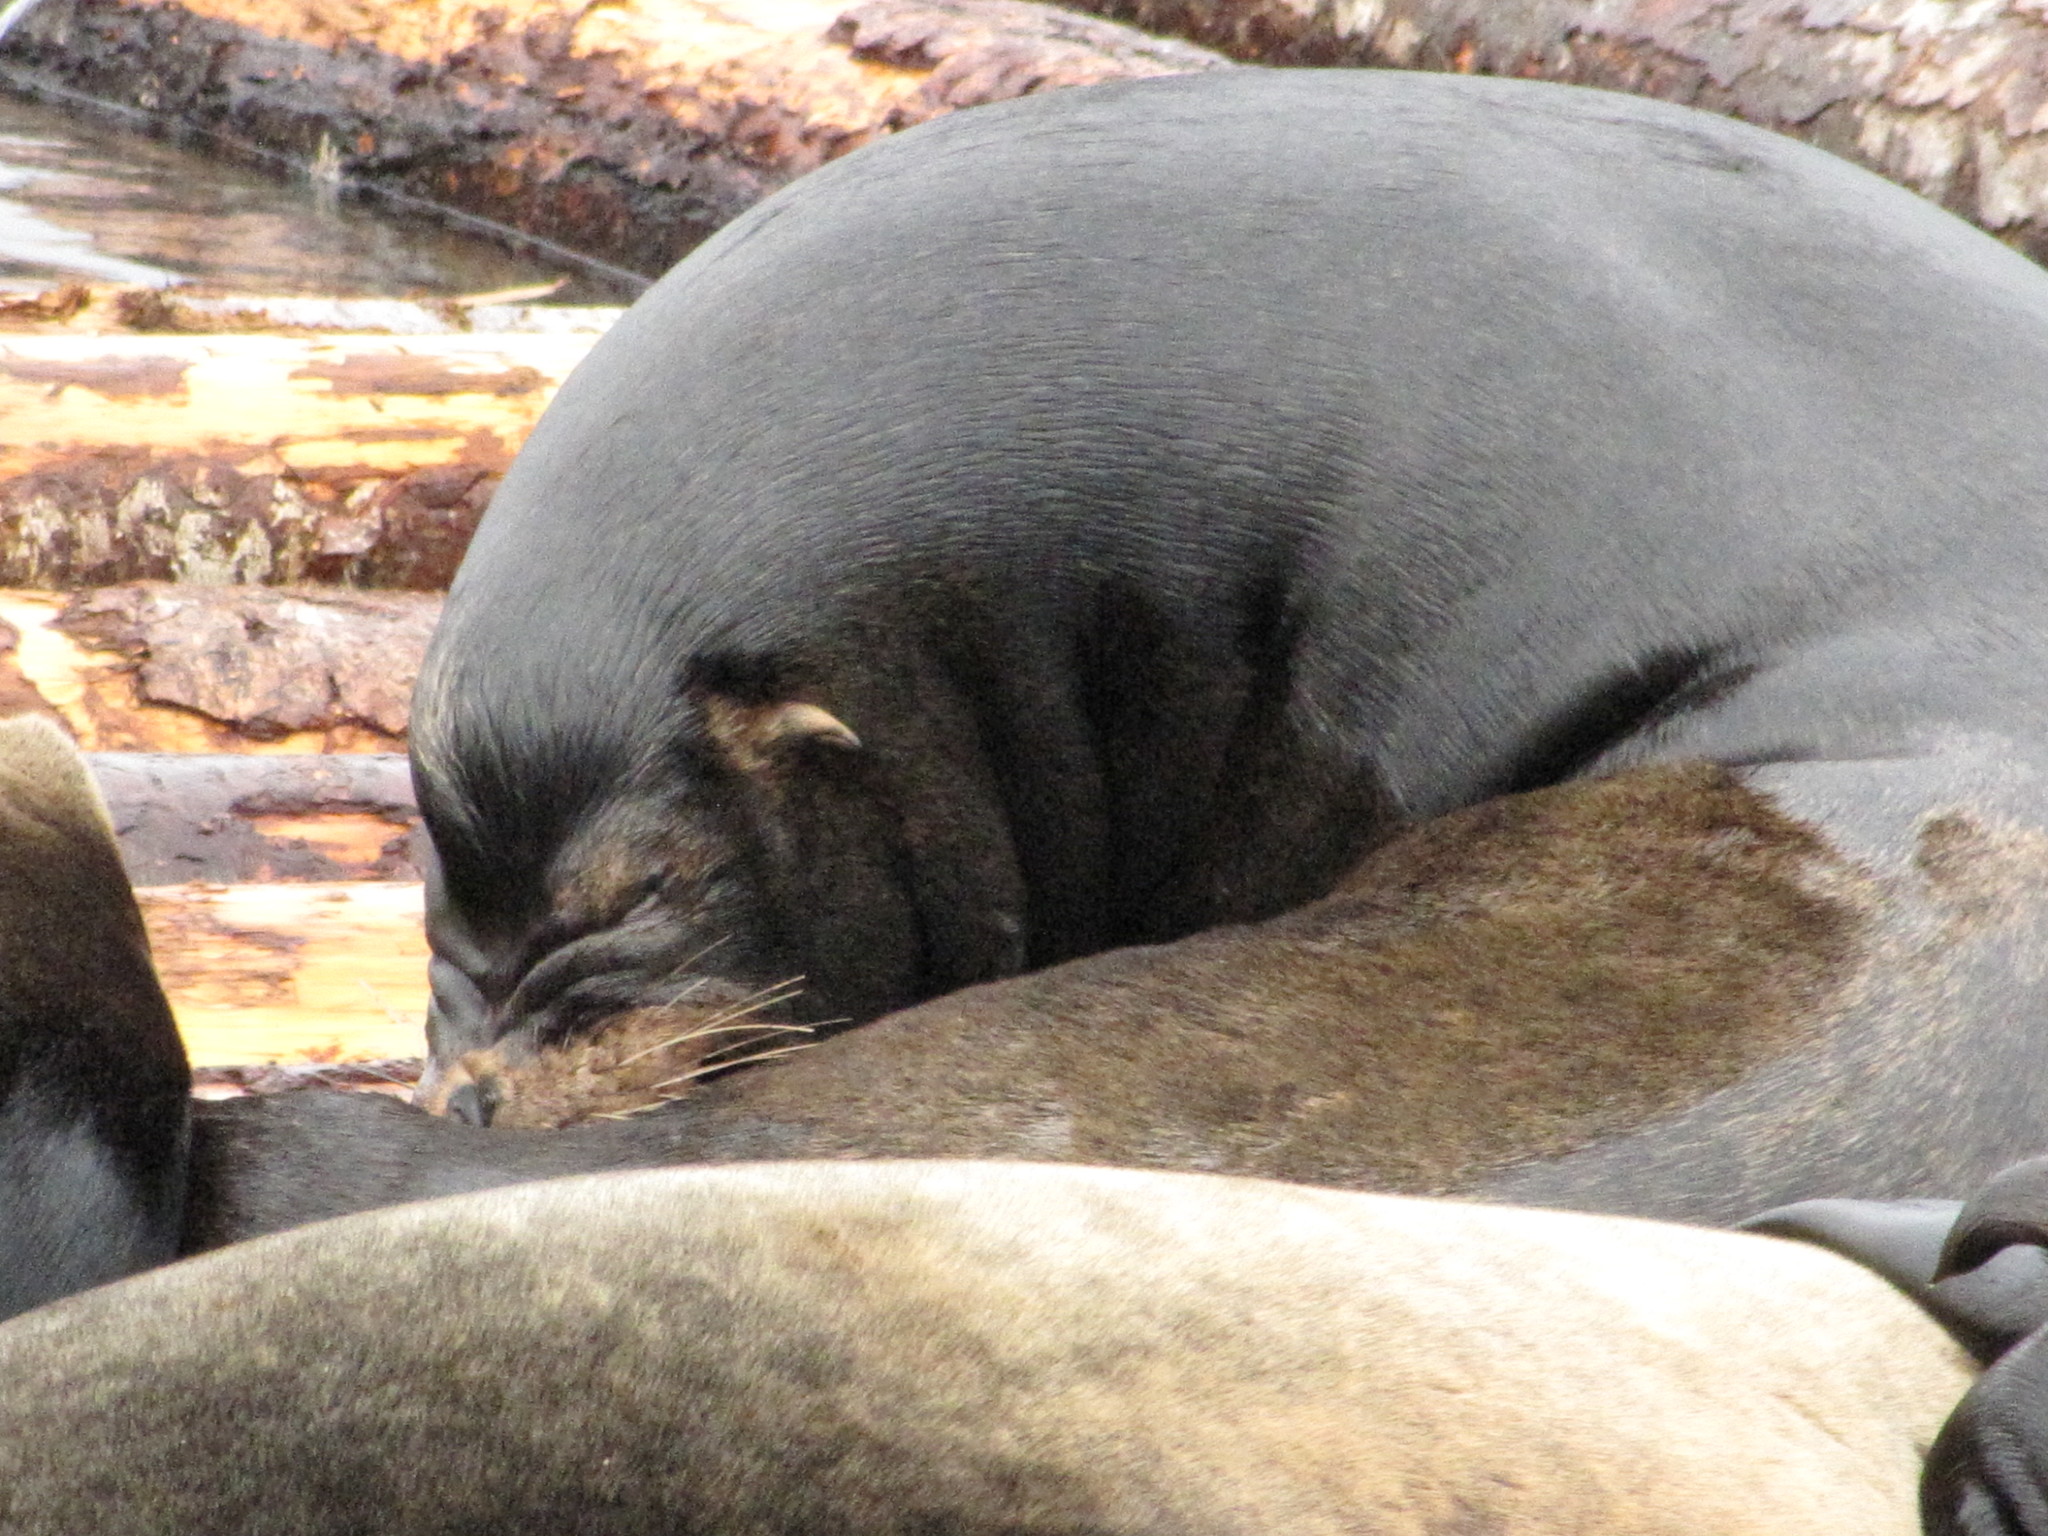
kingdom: Animalia
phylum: Chordata
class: Mammalia
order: Carnivora
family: Otariidae
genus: Zalophus
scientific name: Zalophus californianus
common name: California sea lion
